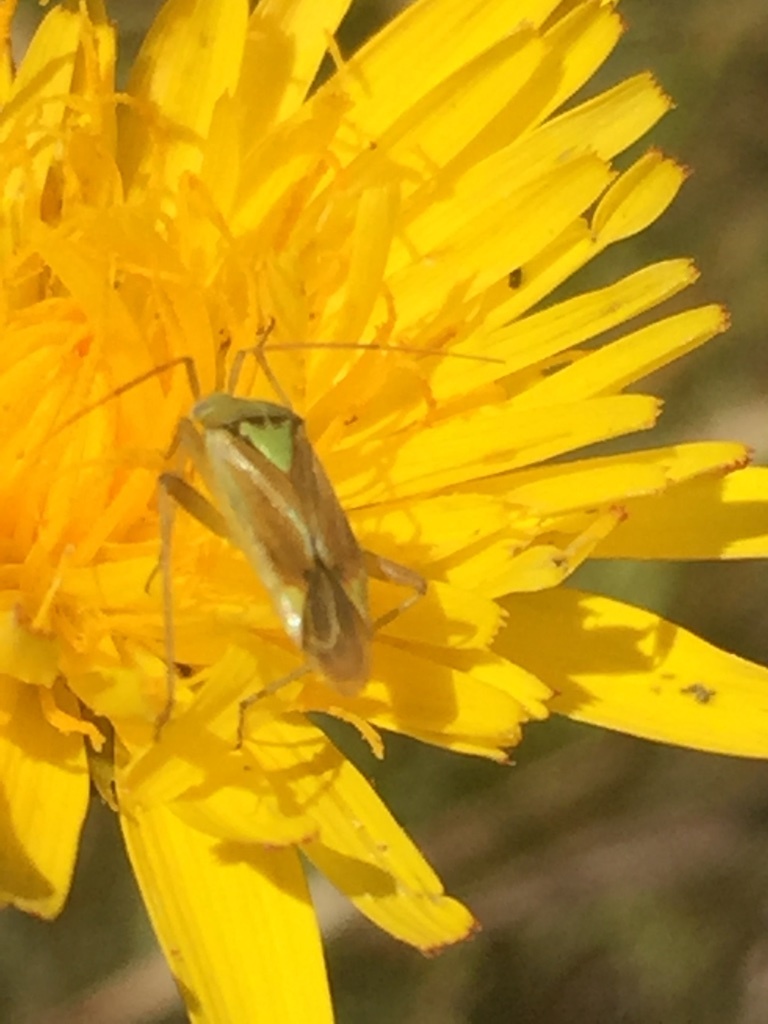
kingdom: Animalia
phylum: Arthropoda
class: Insecta
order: Hemiptera
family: Miridae
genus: Closterotomus
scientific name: Closterotomus norvegicus
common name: Plant bug
